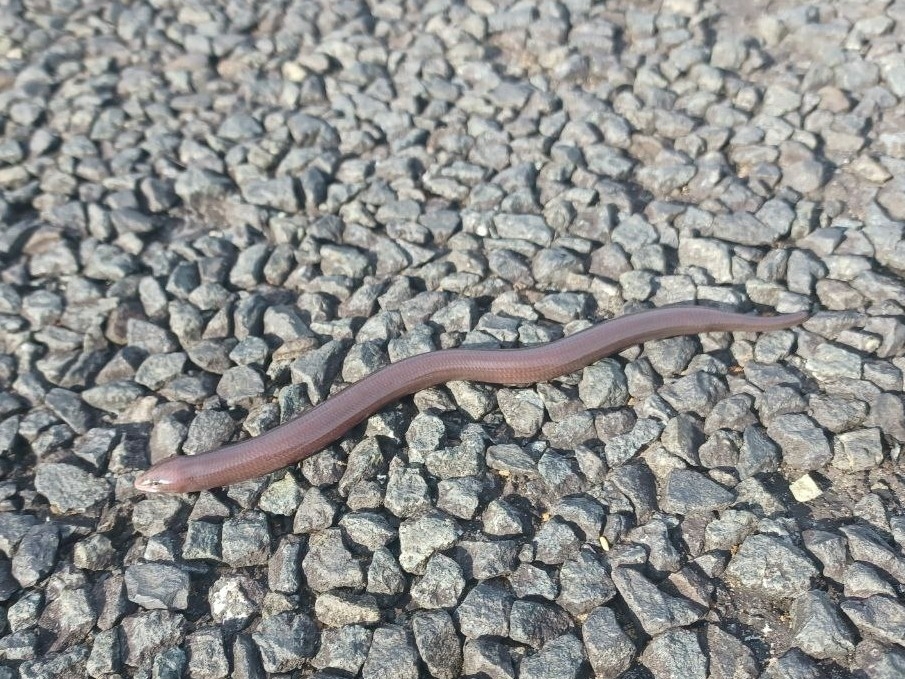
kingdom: Animalia
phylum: Chordata
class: Squamata
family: Scincidae
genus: Acontias
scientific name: Acontias plumbeus
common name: Giant lance skink
